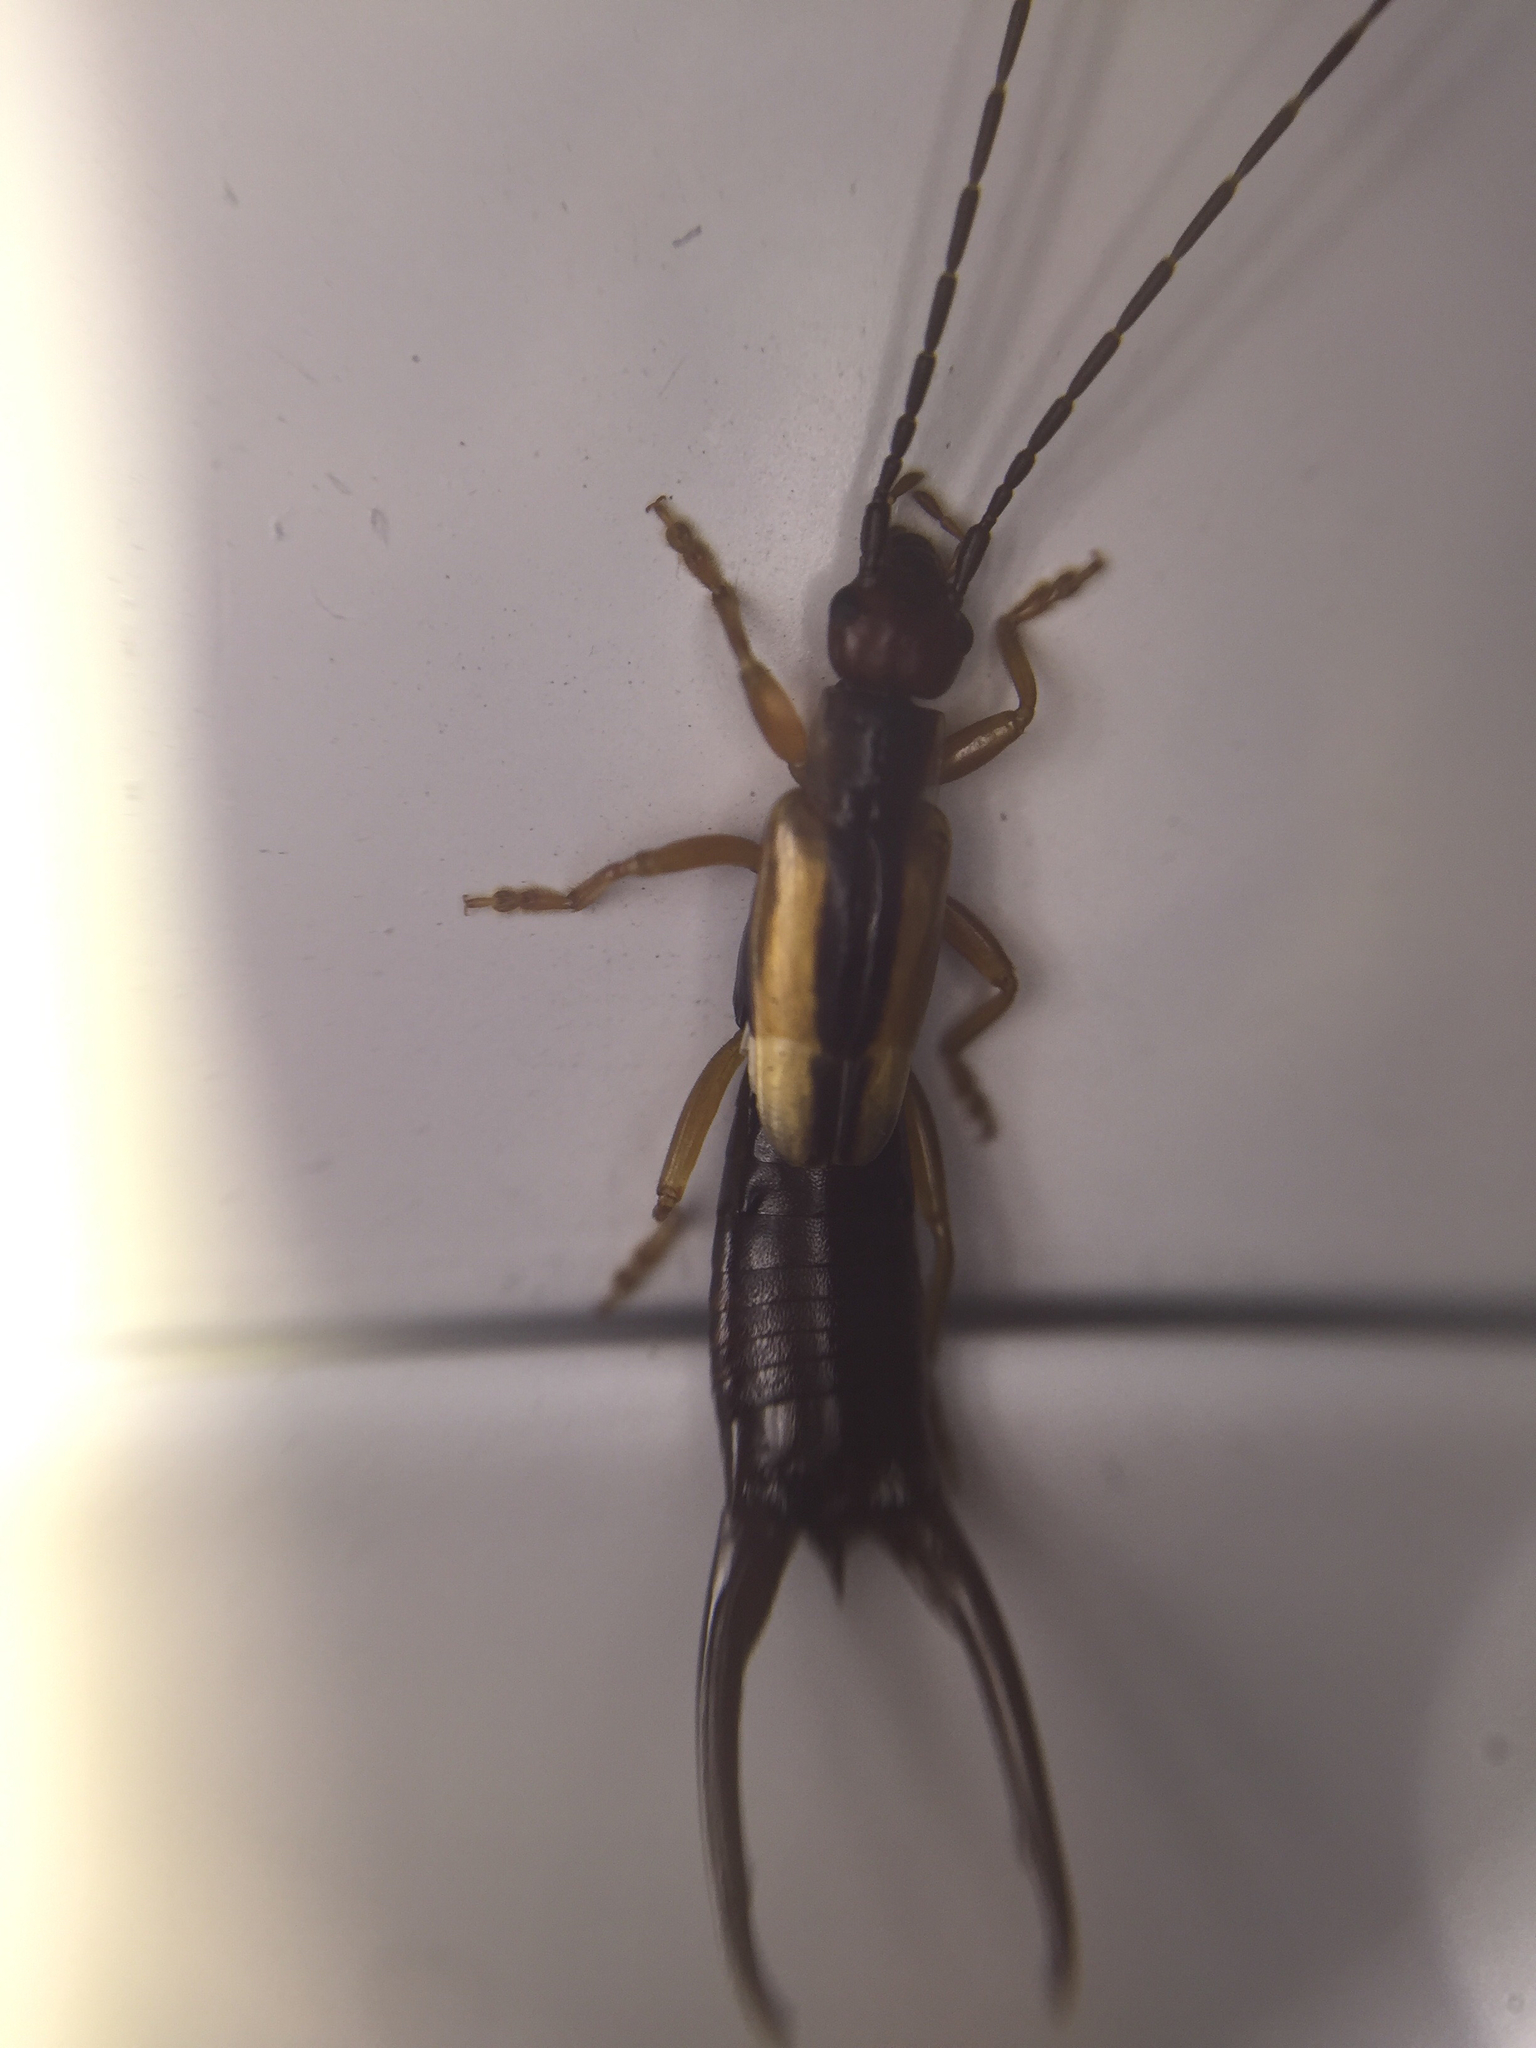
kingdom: Animalia
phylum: Arthropoda
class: Insecta
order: Dermaptera
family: Forficulidae
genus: Doru
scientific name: Doru taeniatum
